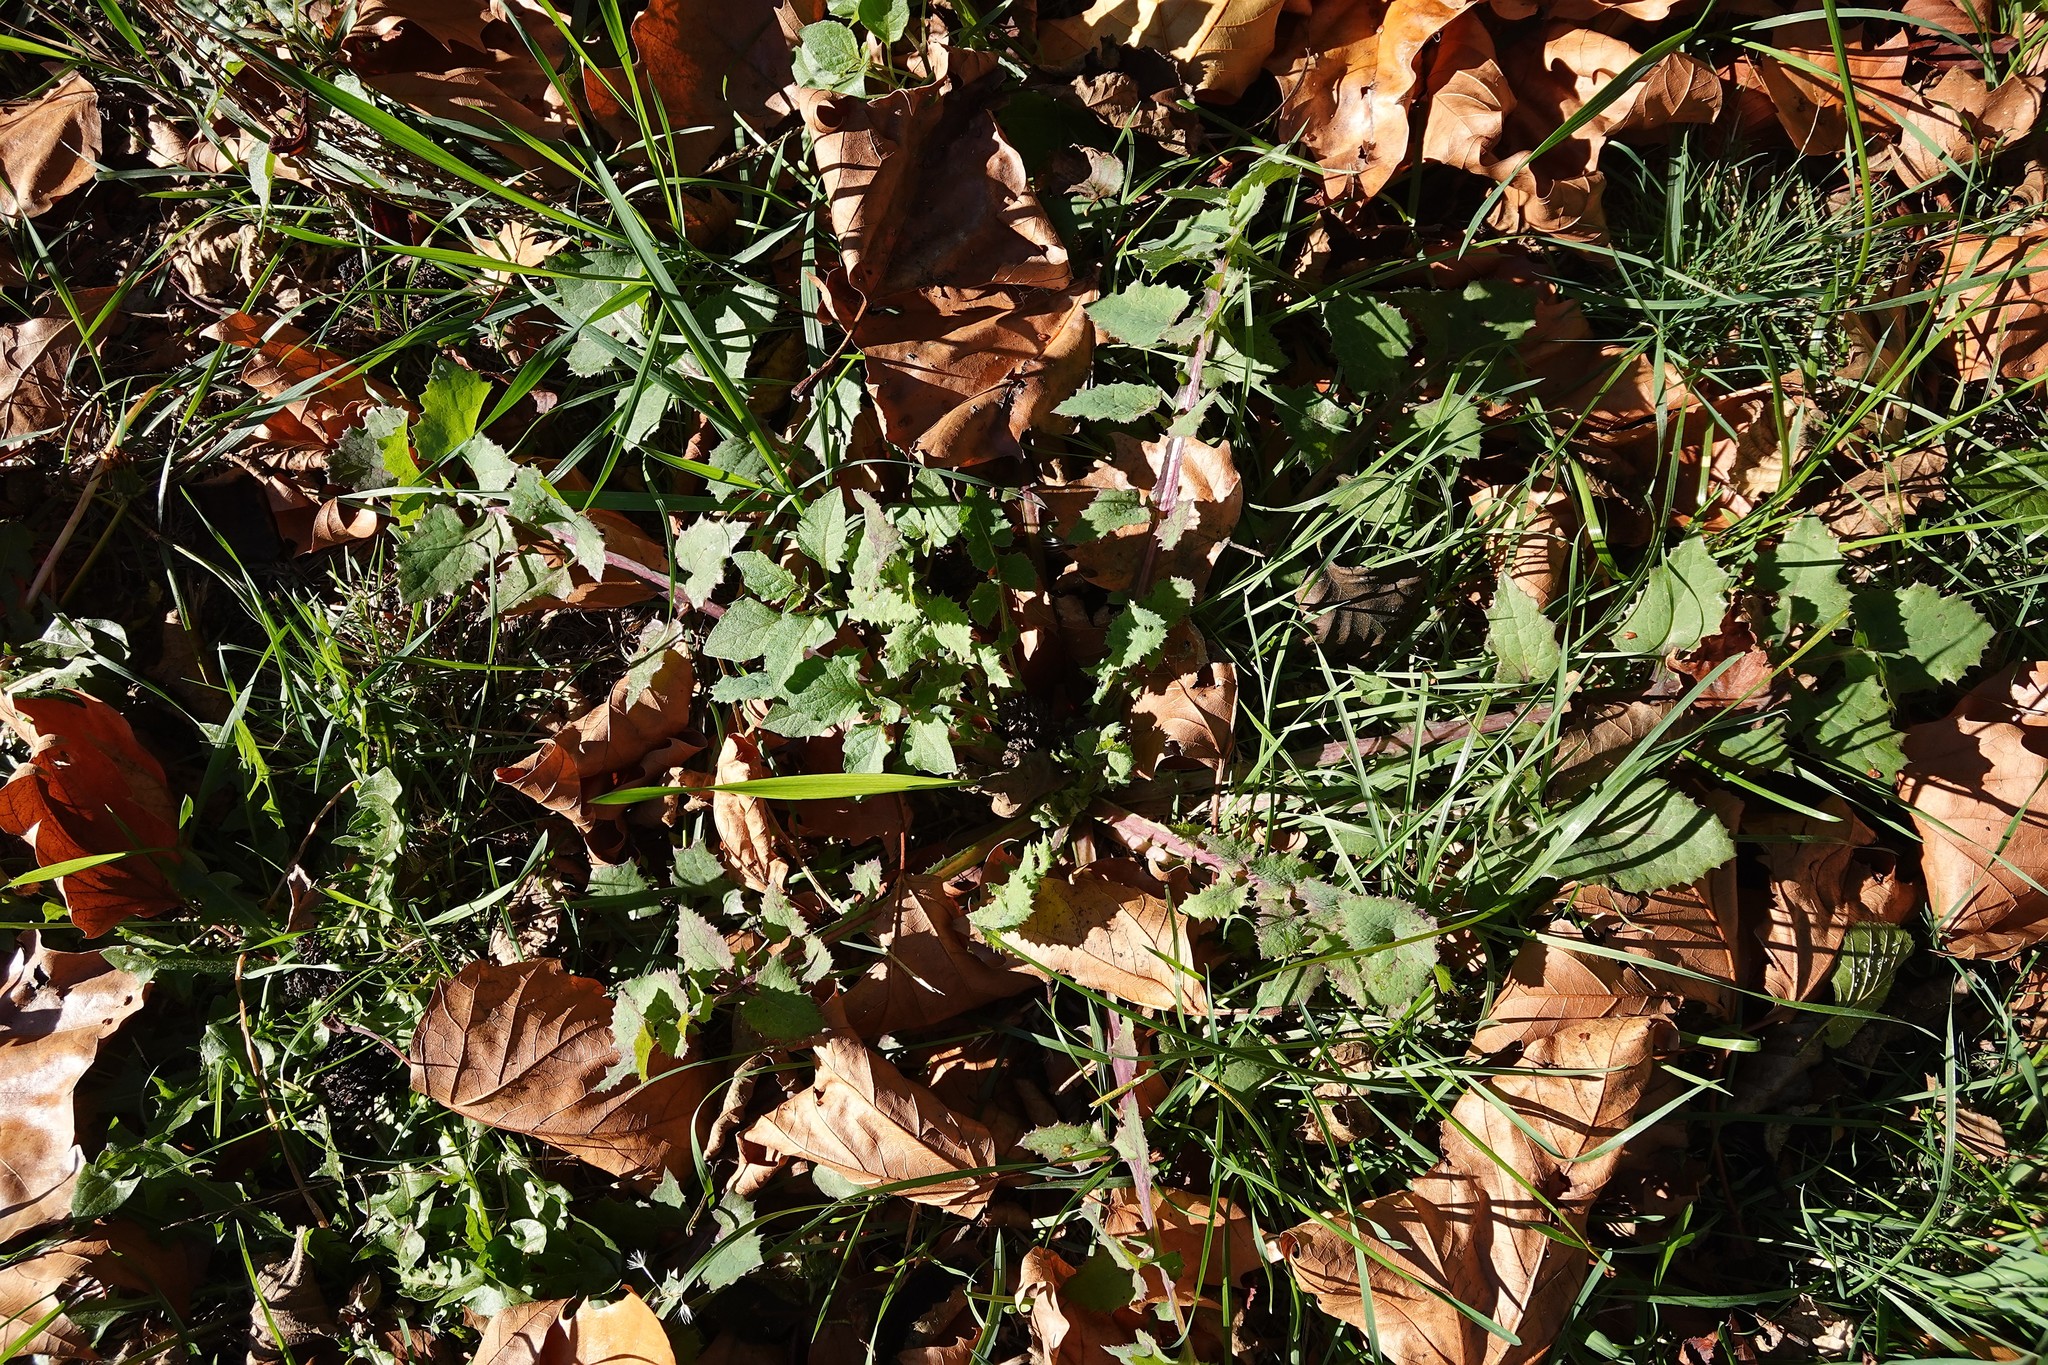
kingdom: Plantae
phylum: Tracheophyta
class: Magnoliopsida
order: Asterales
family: Asteraceae
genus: Sonchus
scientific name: Sonchus oleraceus
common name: Common sowthistle
